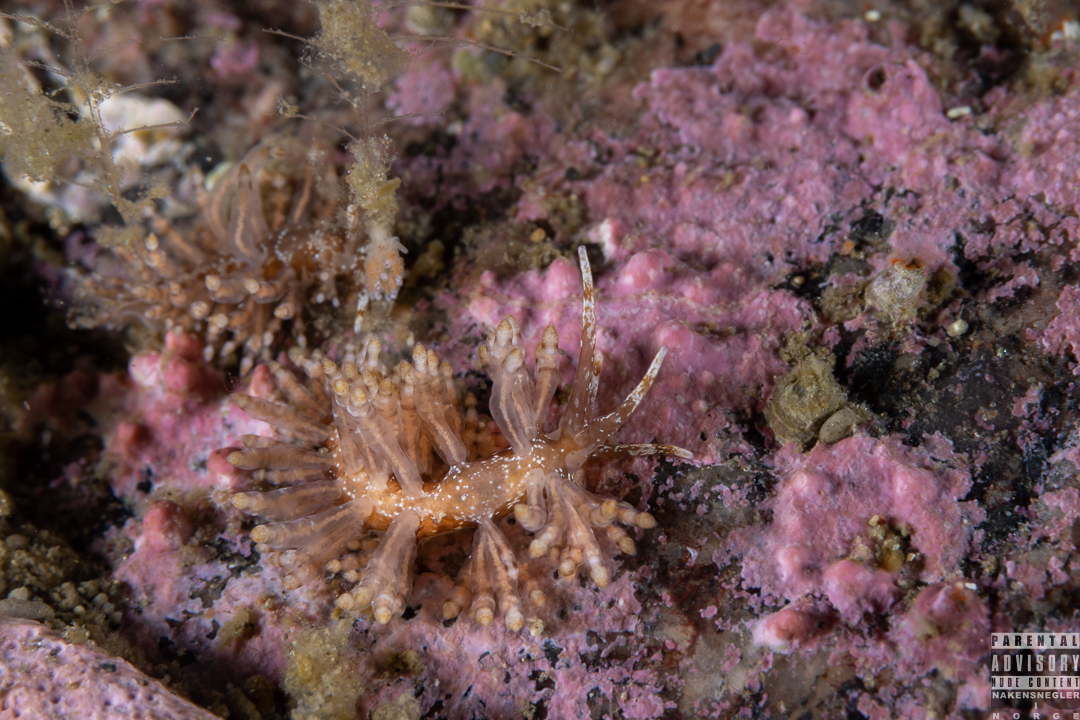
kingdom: Animalia
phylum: Mollusca
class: Gastropoda
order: Nudibranchia
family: Eubranchidae
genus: Eubranchus
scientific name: Eubranchus vittatus
